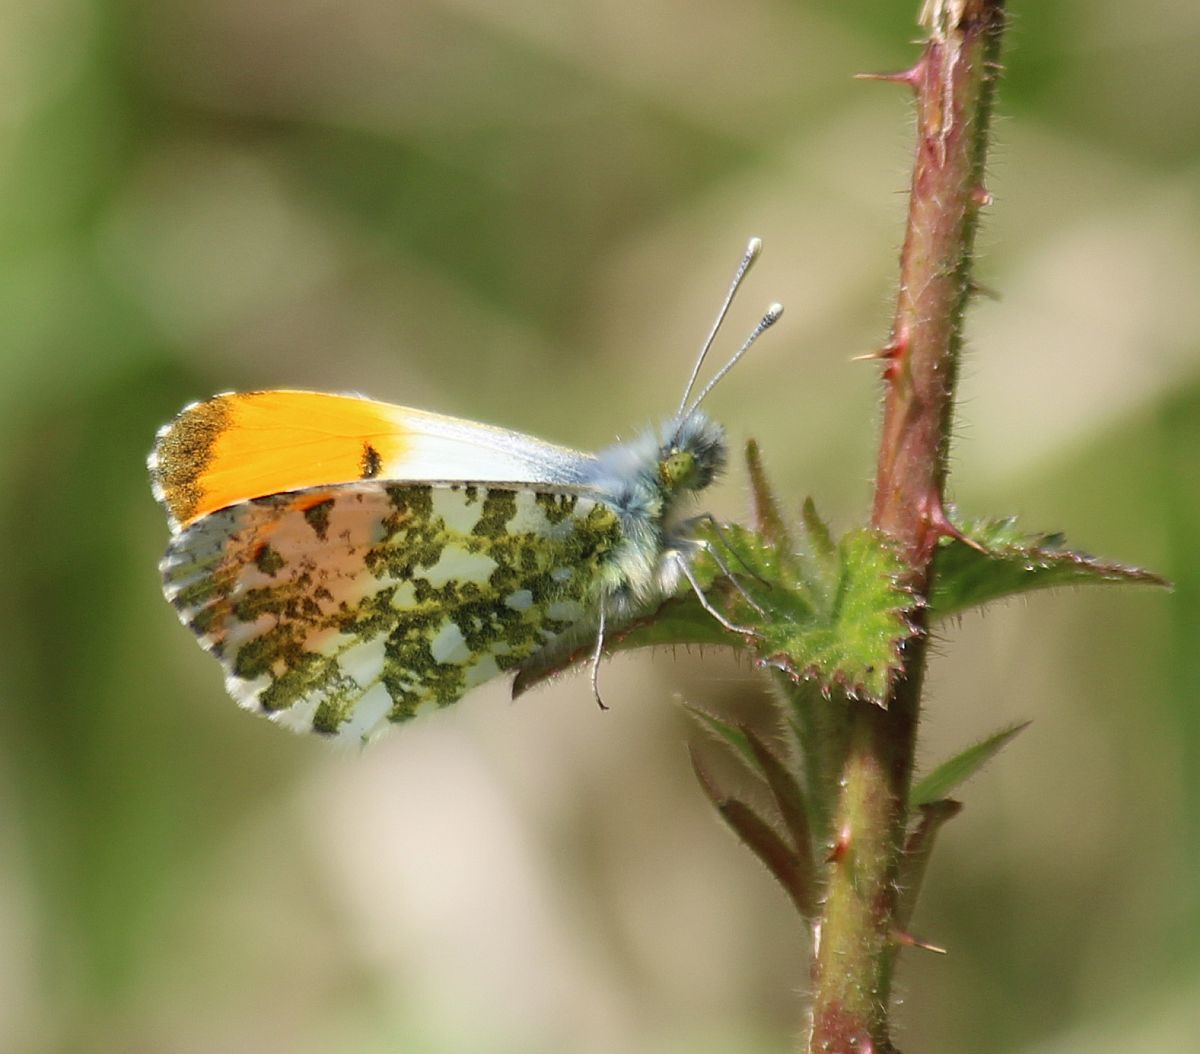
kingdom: Animalia
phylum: Arthropoda
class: Insecta
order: Lepidoptera
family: Pieridae
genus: Anthocharis
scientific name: Anthocharis cardamines
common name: Orange-tip
